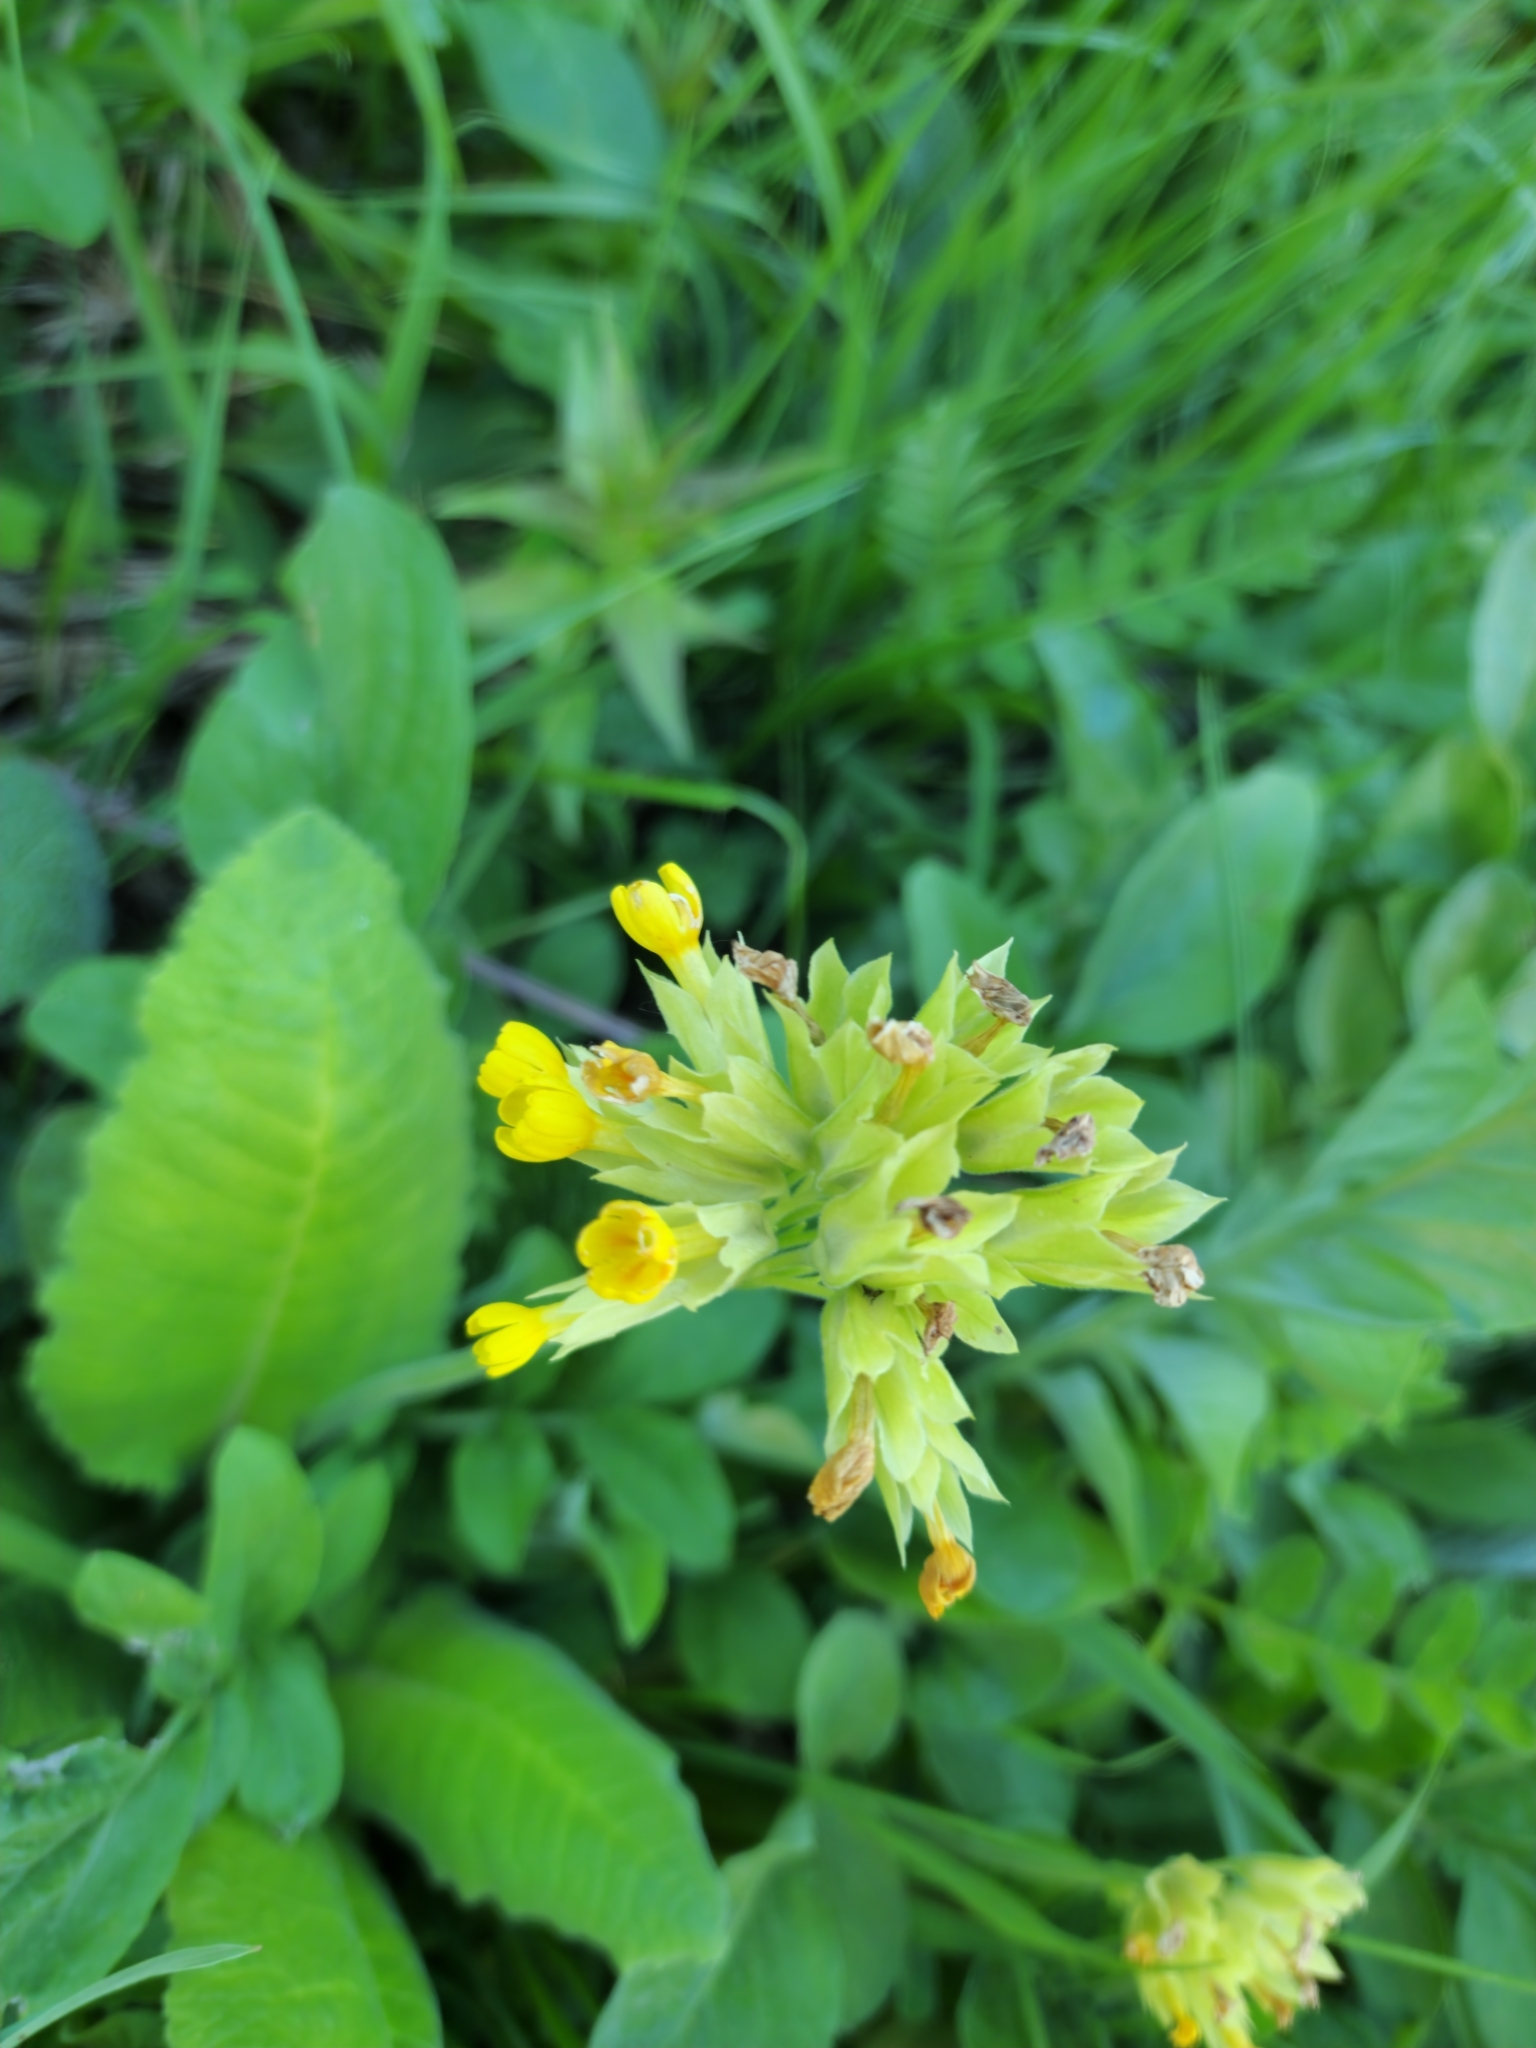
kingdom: Plantae
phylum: Tracheophyta
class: Magnoliopsida
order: Ericales
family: Primulaceae
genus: Primula
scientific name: Primula veris
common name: Cowslip
